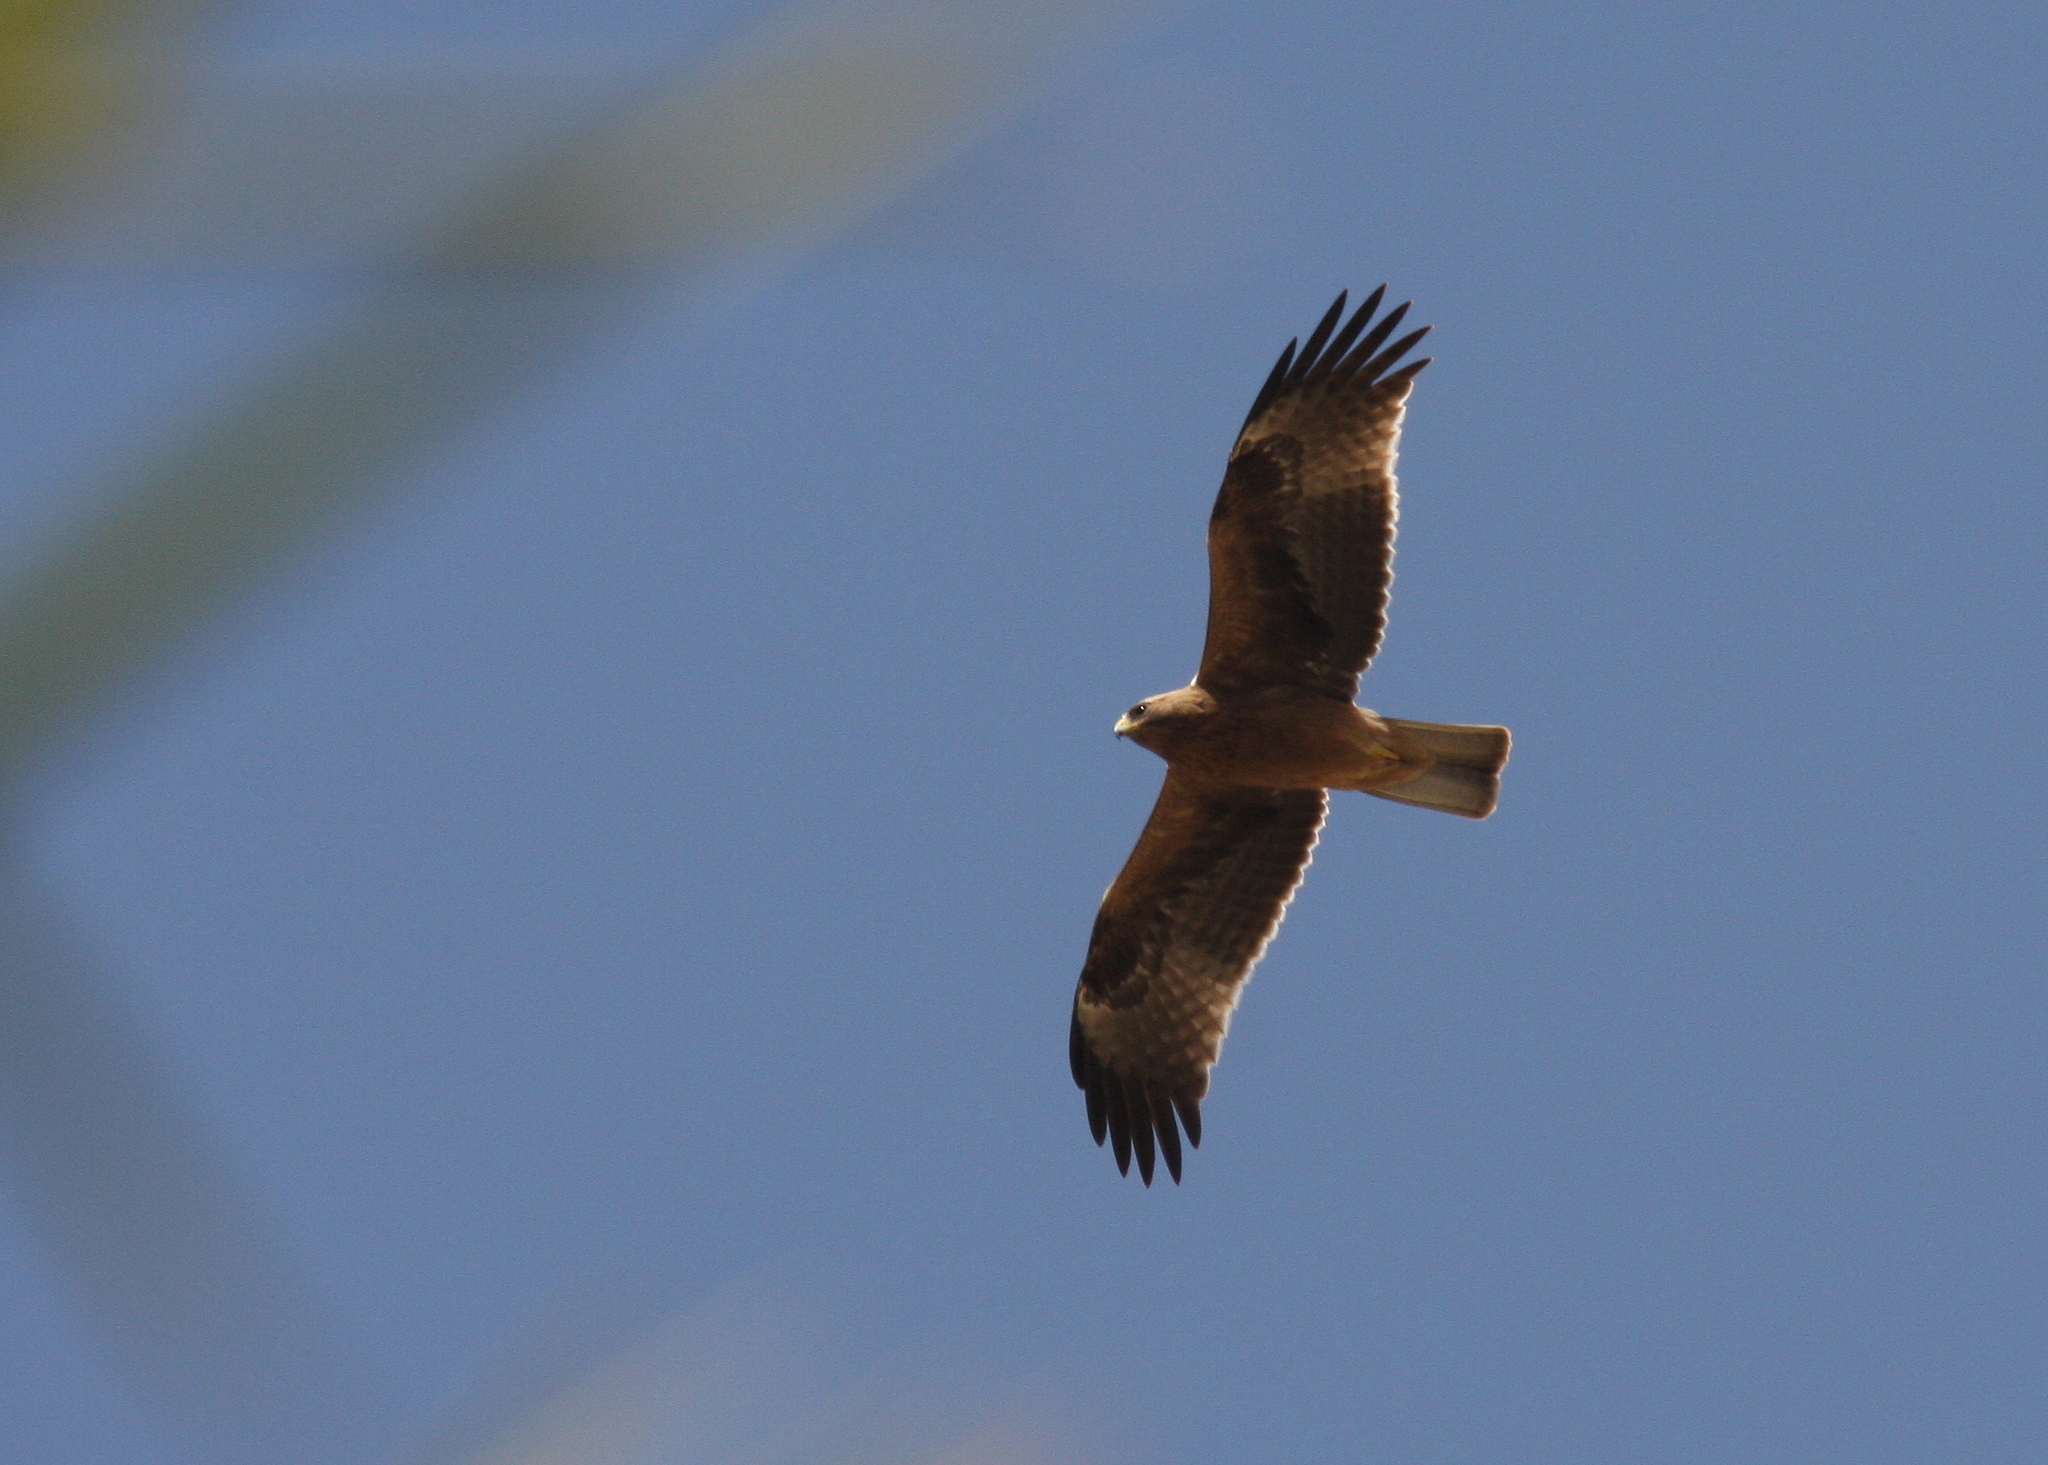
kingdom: Animalia
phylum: Chordata
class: Aves
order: Accipitriformes
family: Accipitridae
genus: Hieraaetus
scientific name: Hieraaetus pennatus
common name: Booted eagle
